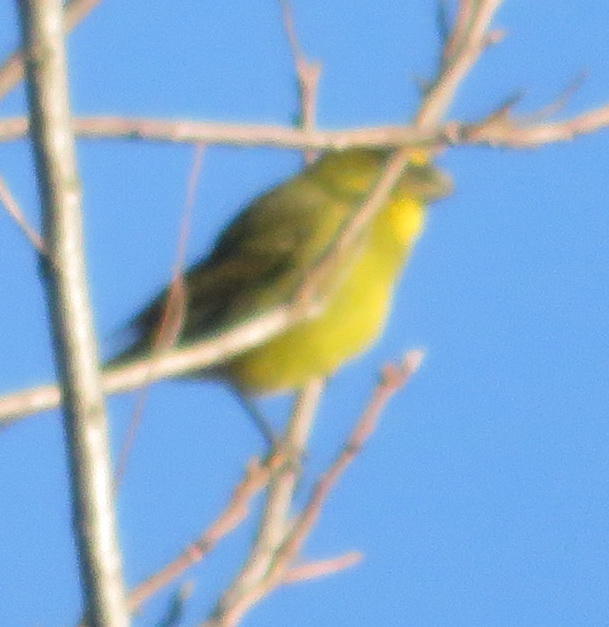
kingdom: Animalia
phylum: Chordata
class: Aves
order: Passeriformes
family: Fringillidae
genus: Crithagra
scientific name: Crithagra flaviventris
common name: Yellow canary
